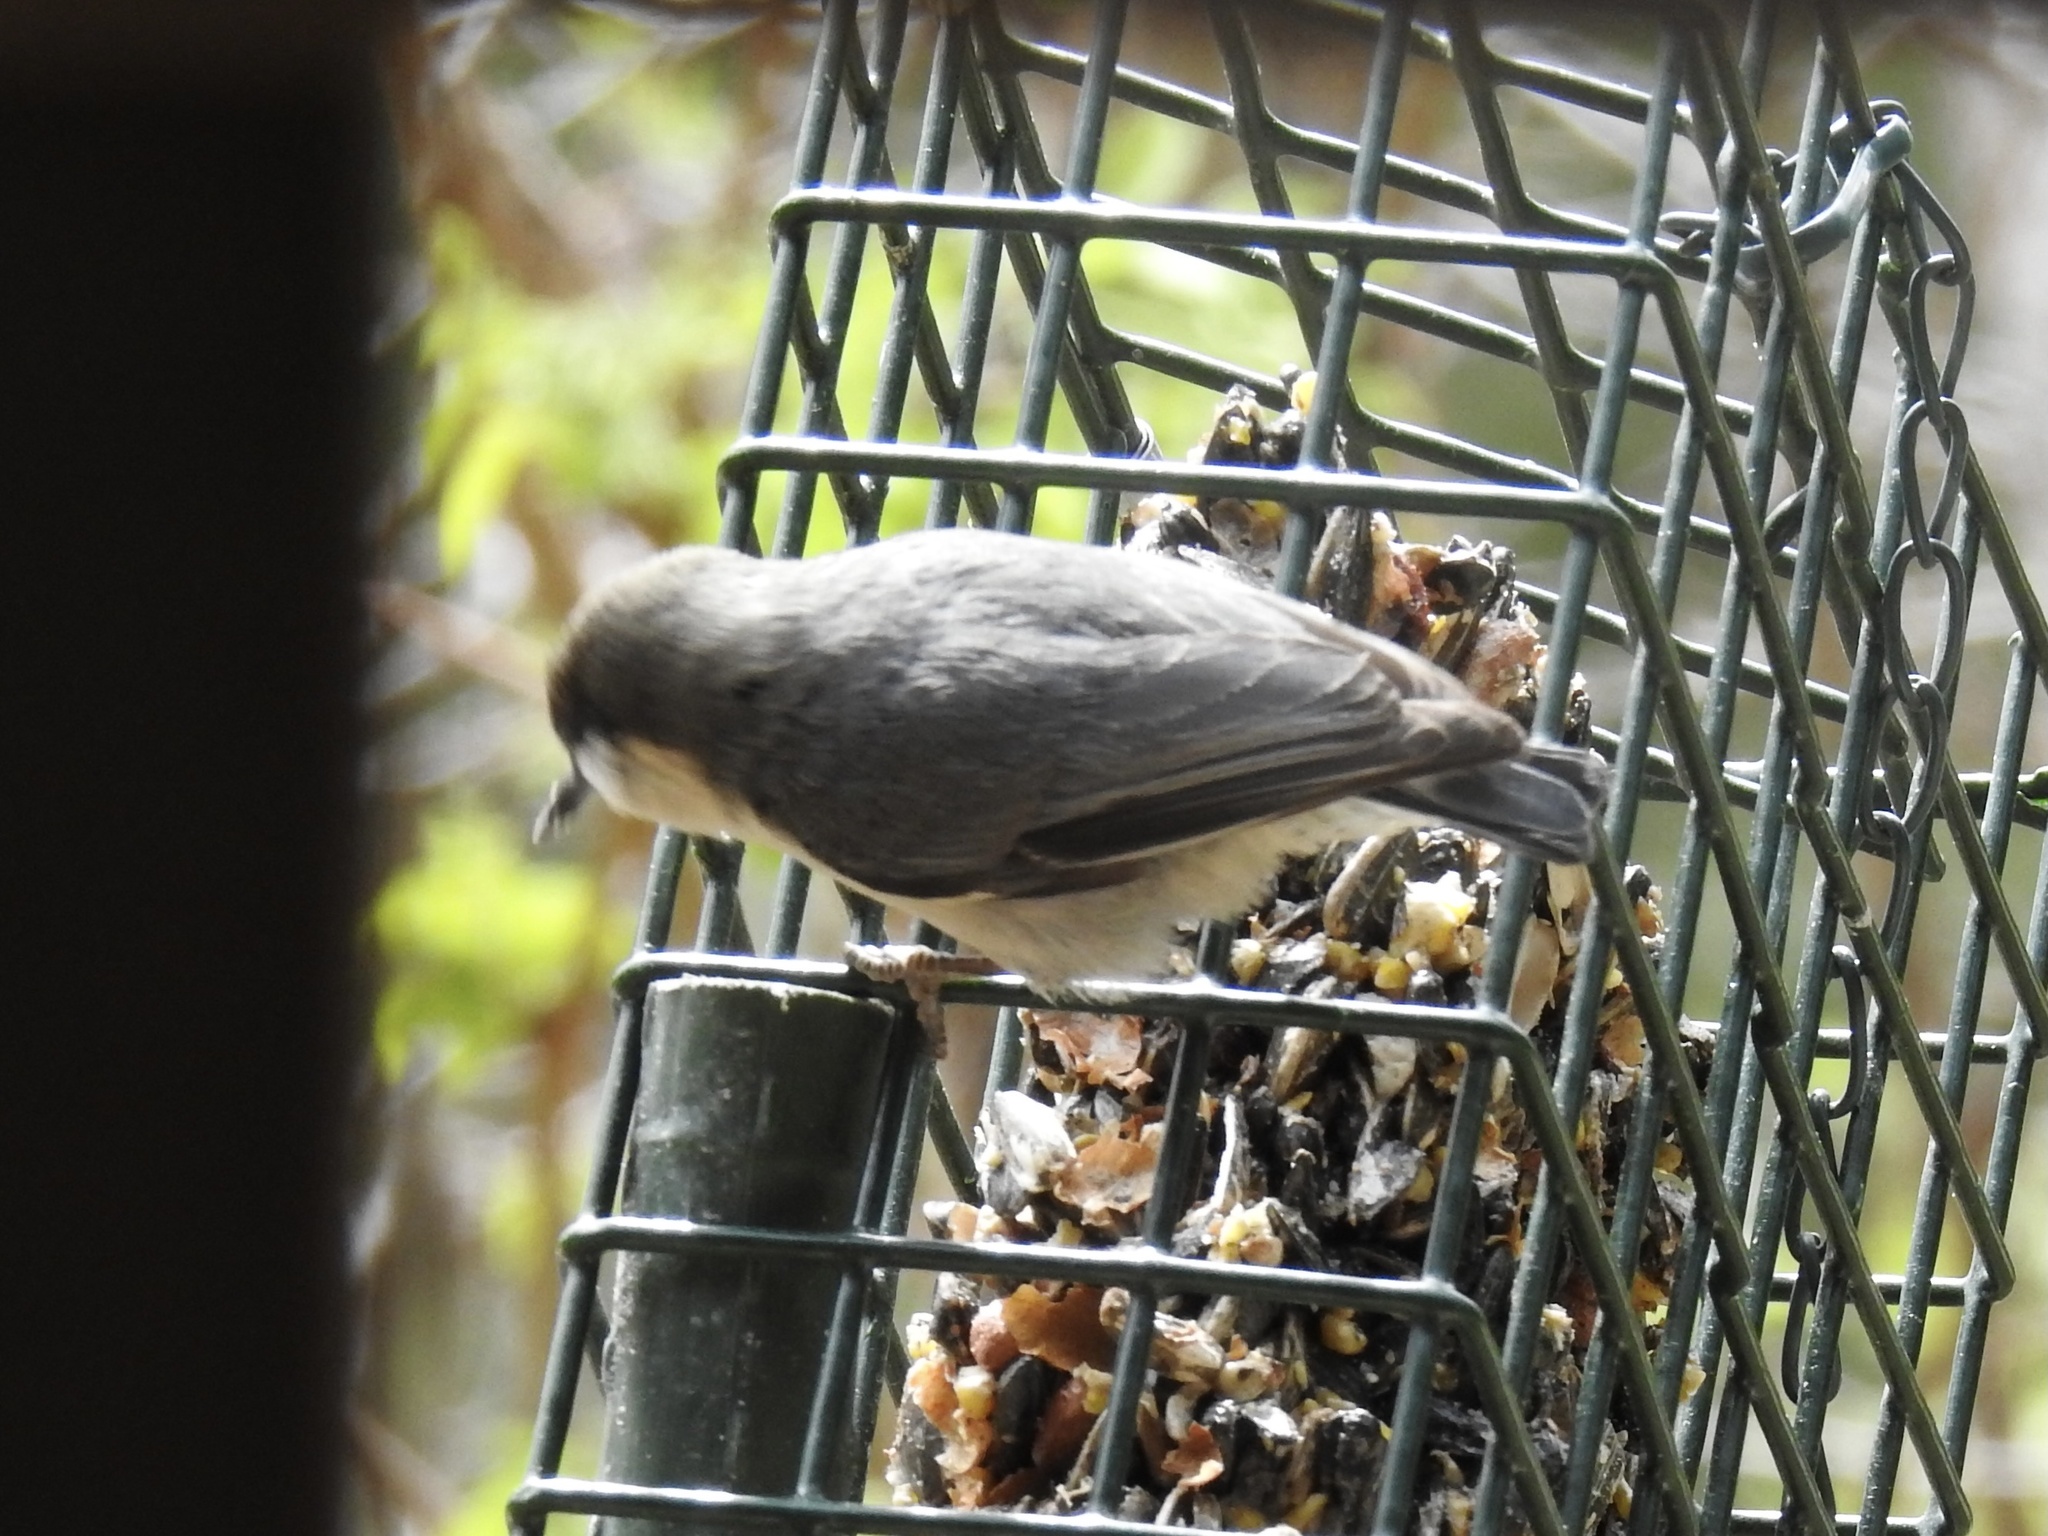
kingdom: Animalia
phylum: Chordata
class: Aves
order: Passeriformes
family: Sittidae
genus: Sitta
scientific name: Sitta pygmaea
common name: Pygmy nuthatch
